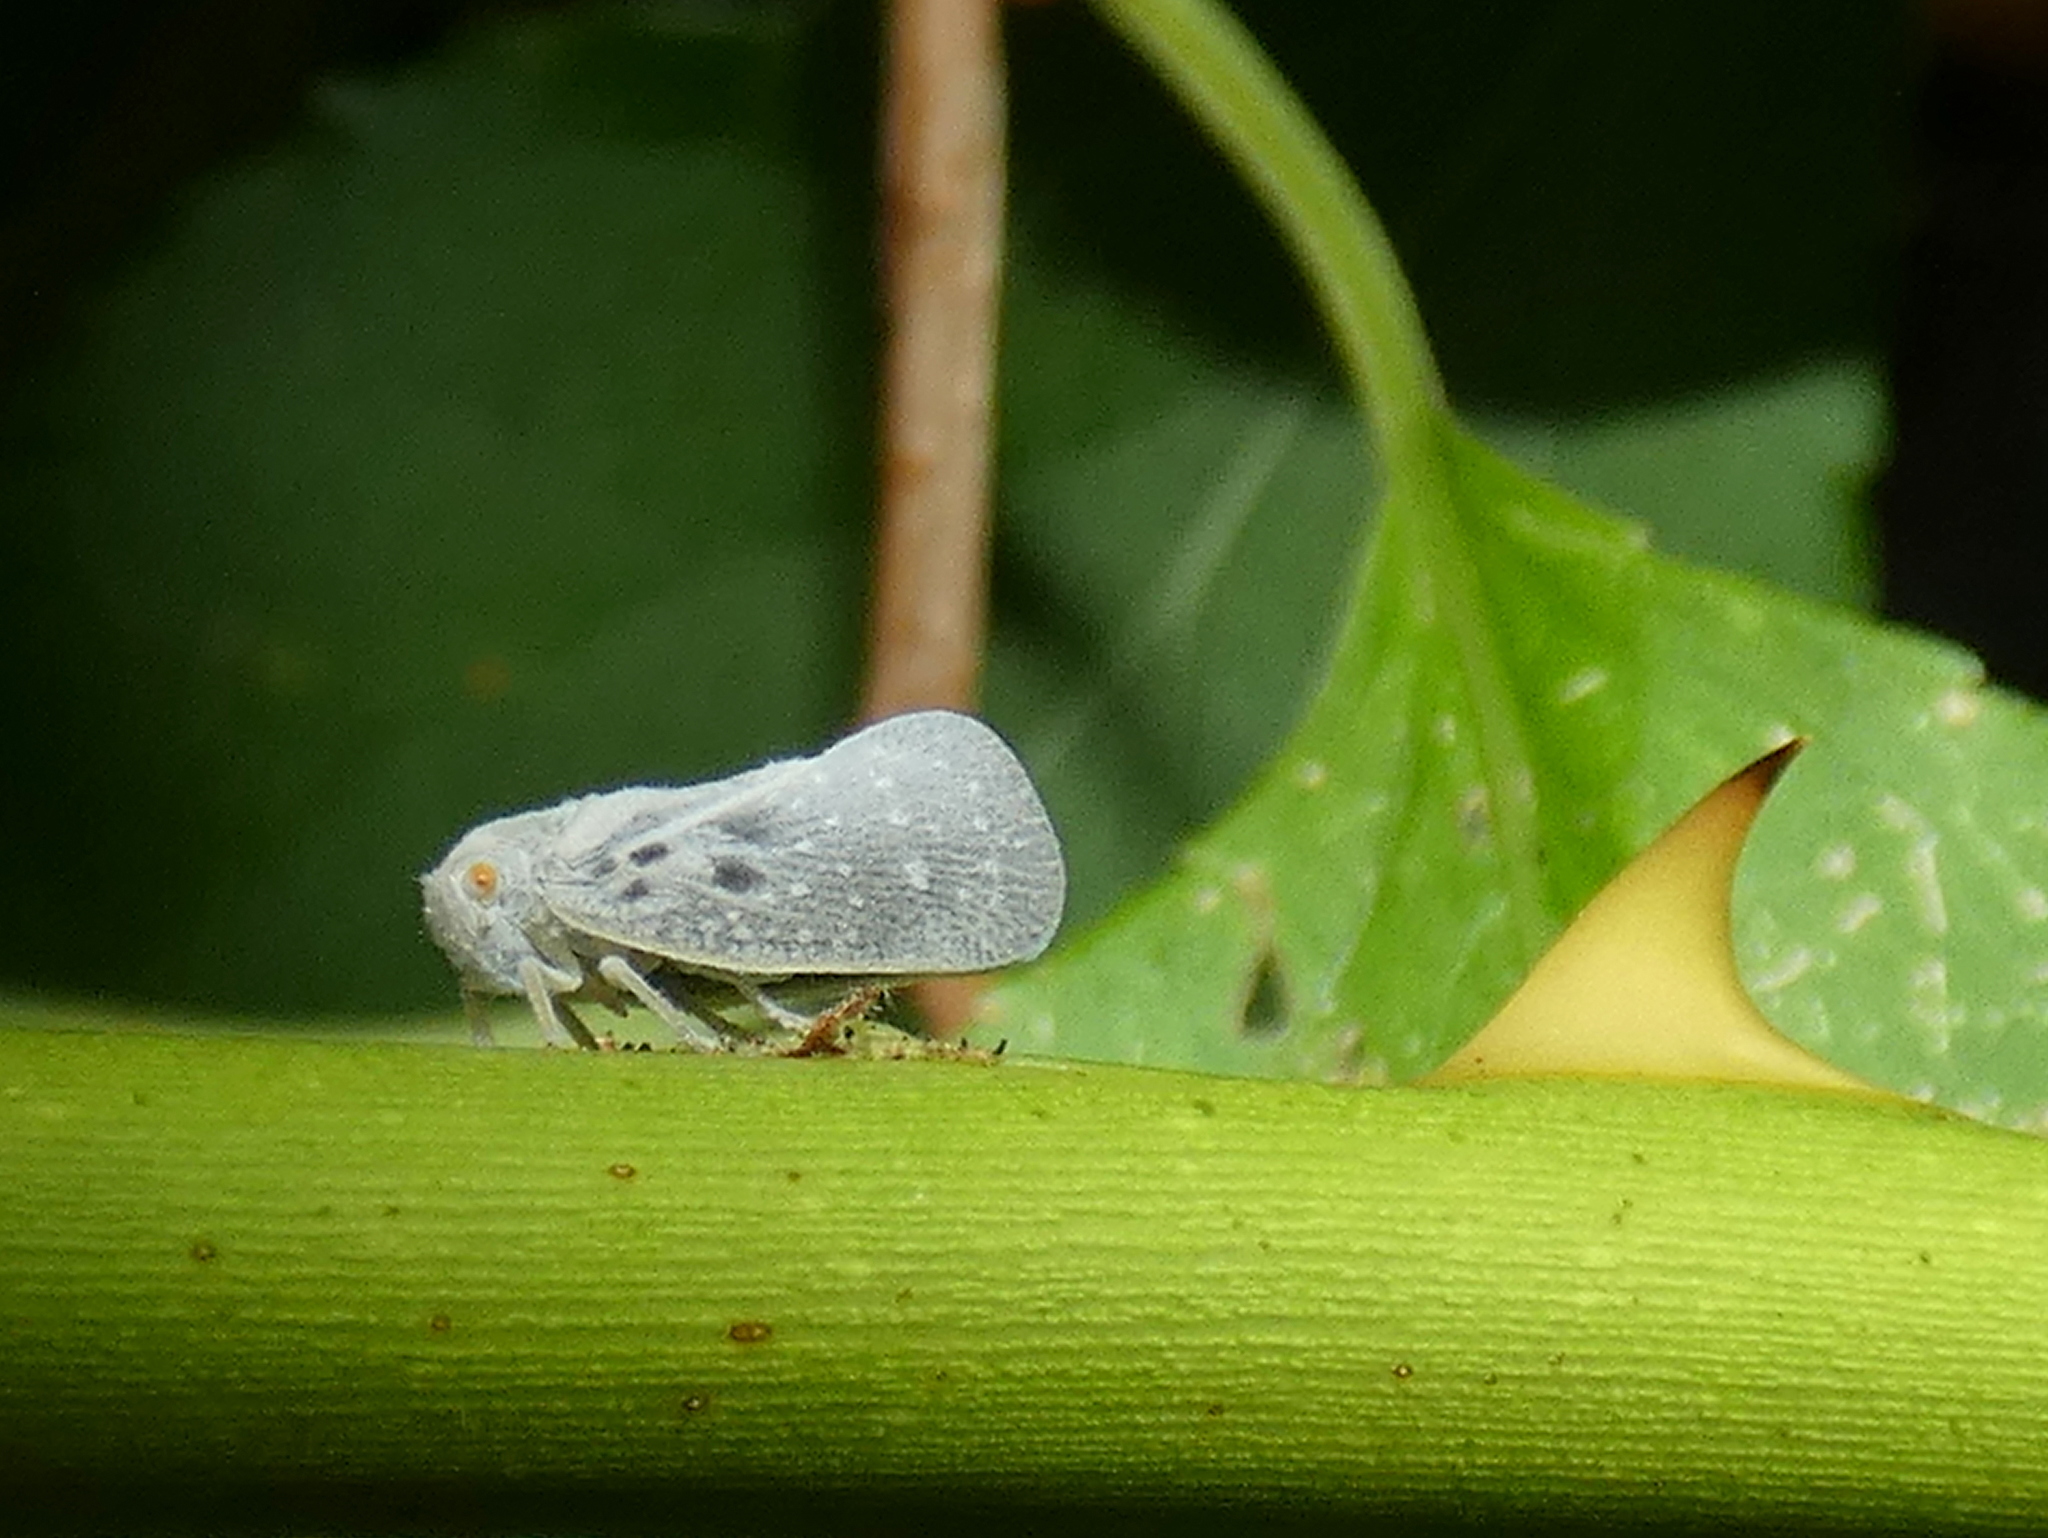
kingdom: Animalia
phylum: Arthropoda
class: Insecta
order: Hemiptera
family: Flatidae
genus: Metcalfa
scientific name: Metcalfa pruinosa
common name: Citrus flatid planthopper
